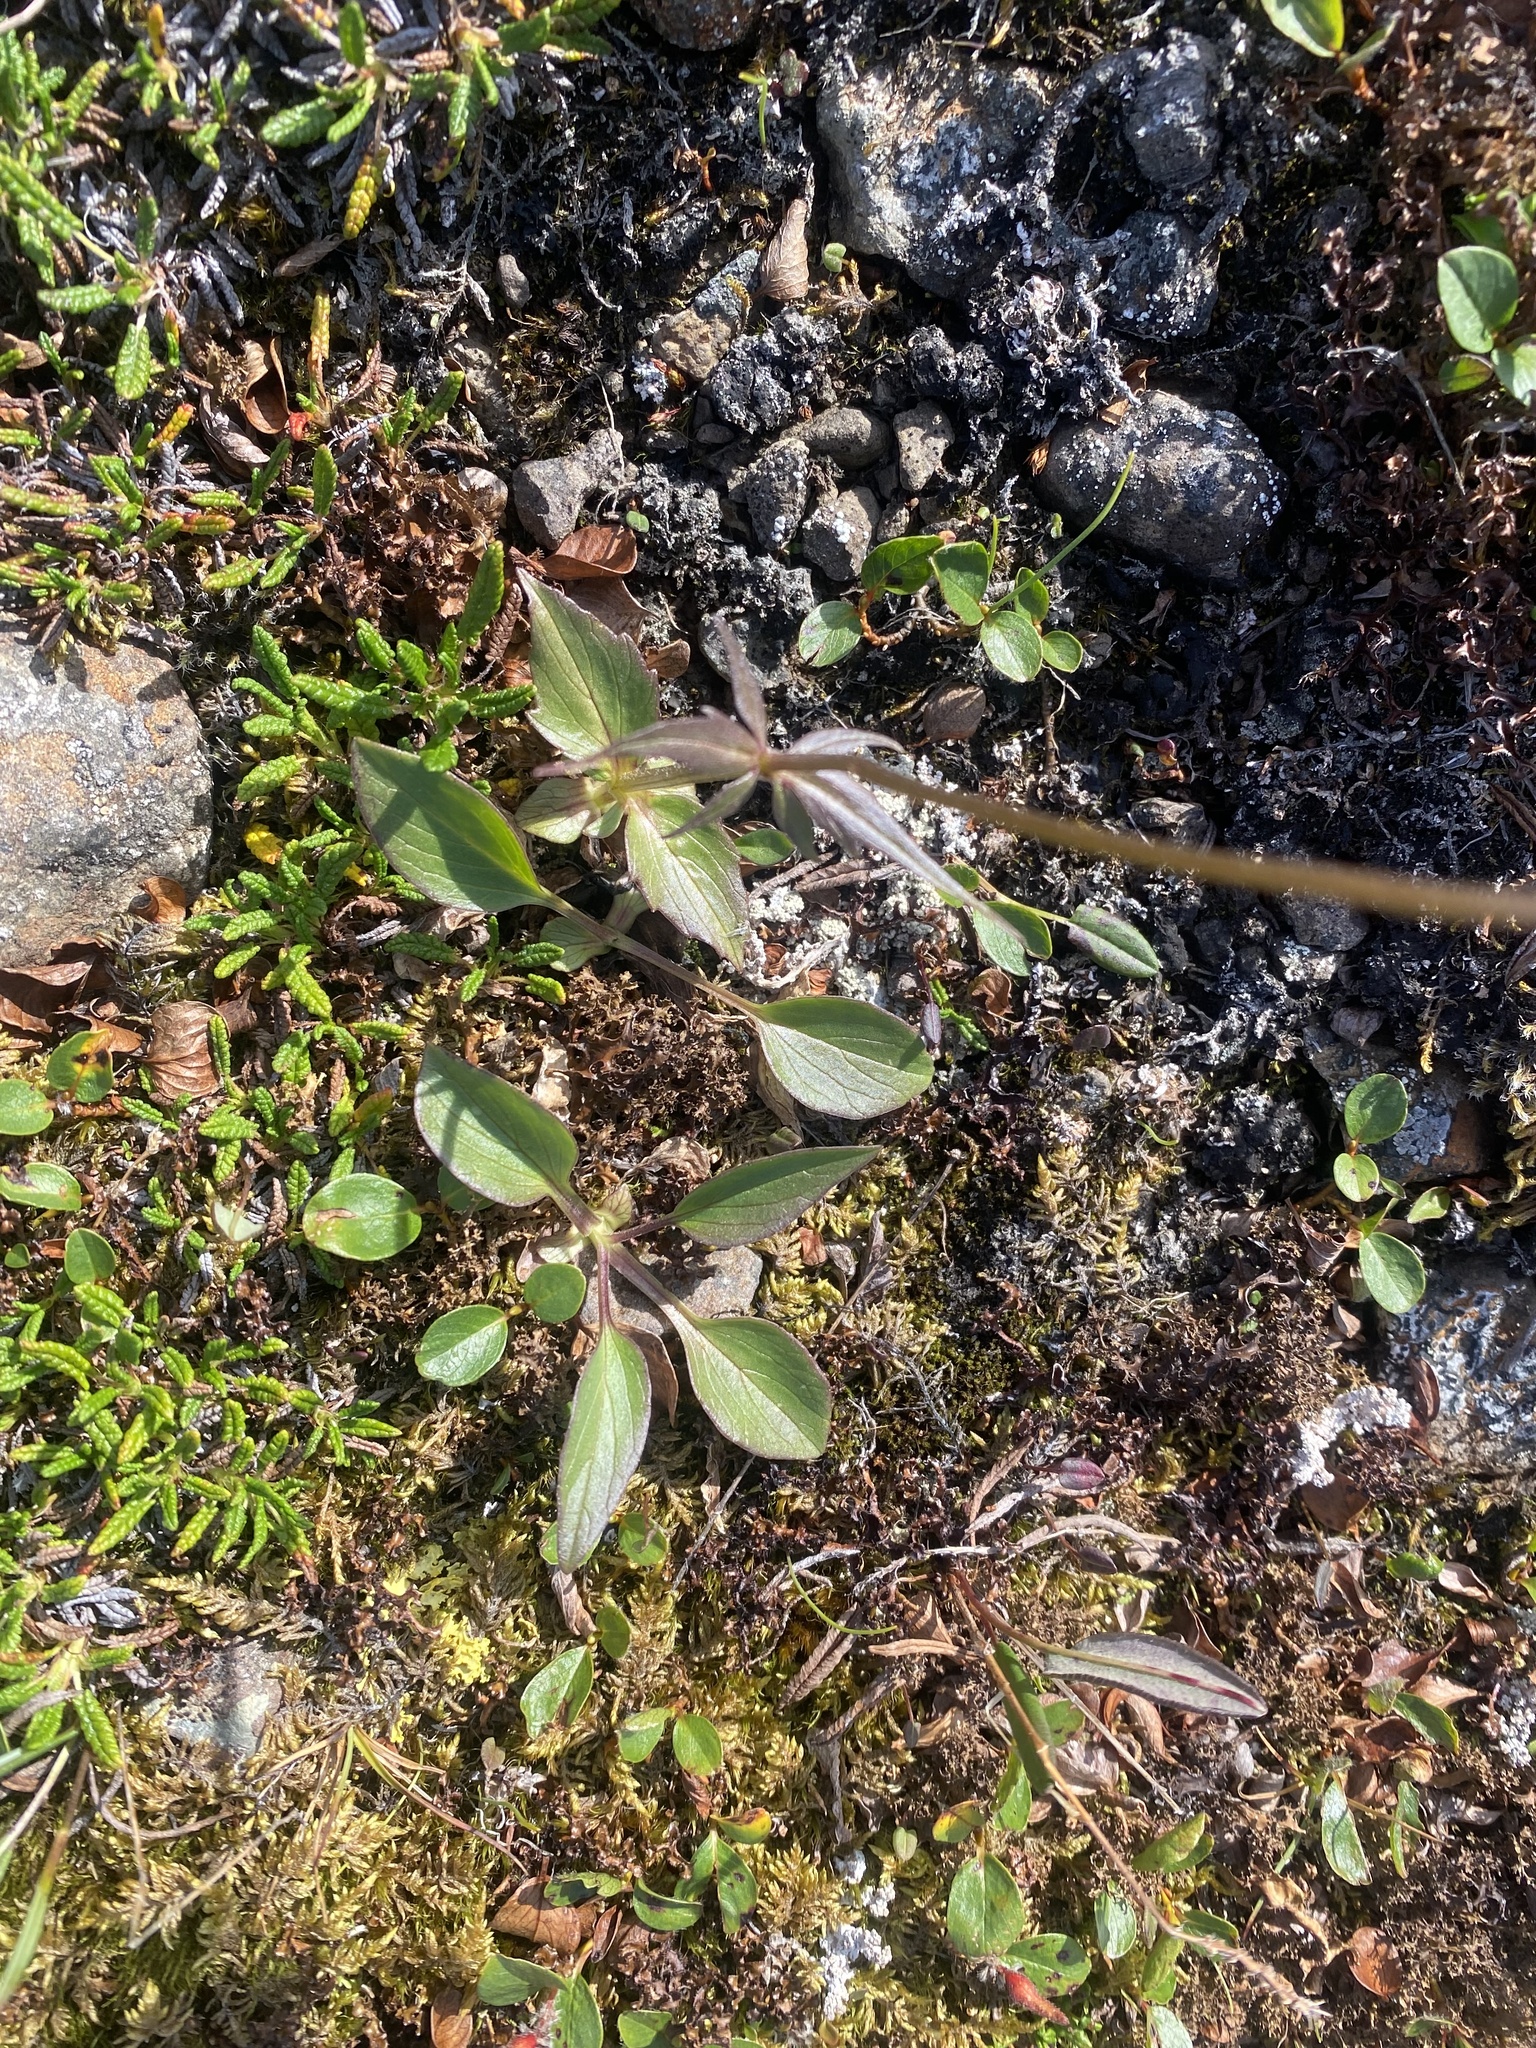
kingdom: Plantae
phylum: Tracheophyta
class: Magnoliopsida
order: Dipsacales
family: Caprifoliaceae
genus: Valeriana
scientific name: Valeriana capitata
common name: Capitate valerian
